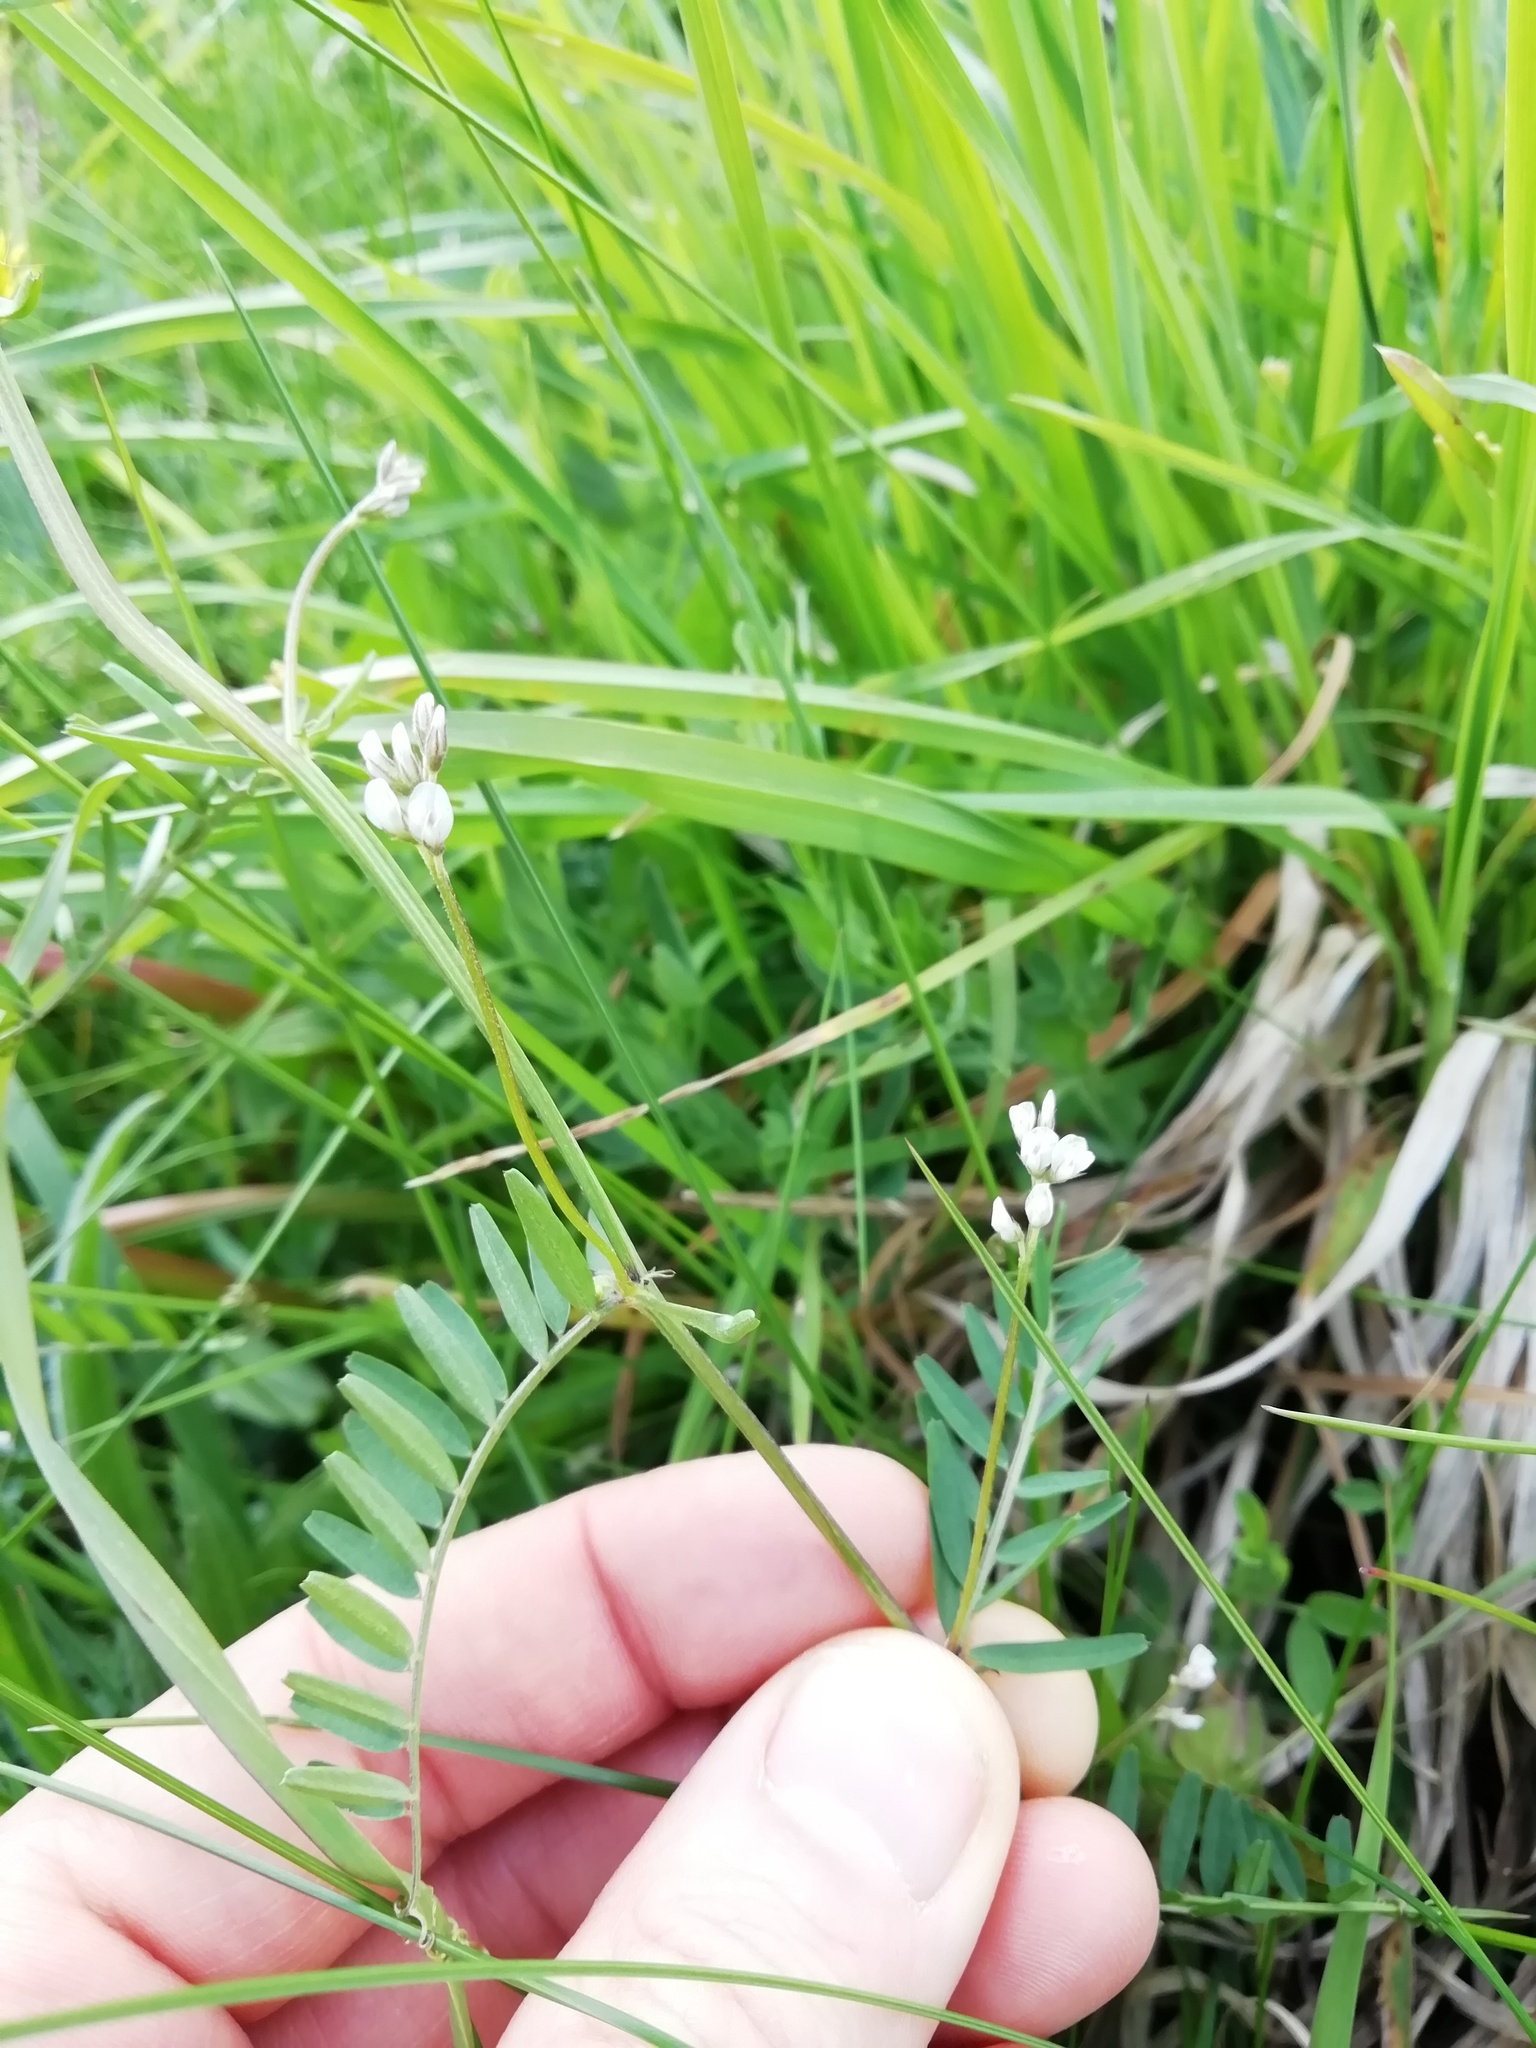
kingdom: Plantae
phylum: Tracheophyta
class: Magnoliopsida
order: Fabales
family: Fabaceae
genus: Vicia
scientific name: Vicia hirsuta
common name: Tiny vetch
